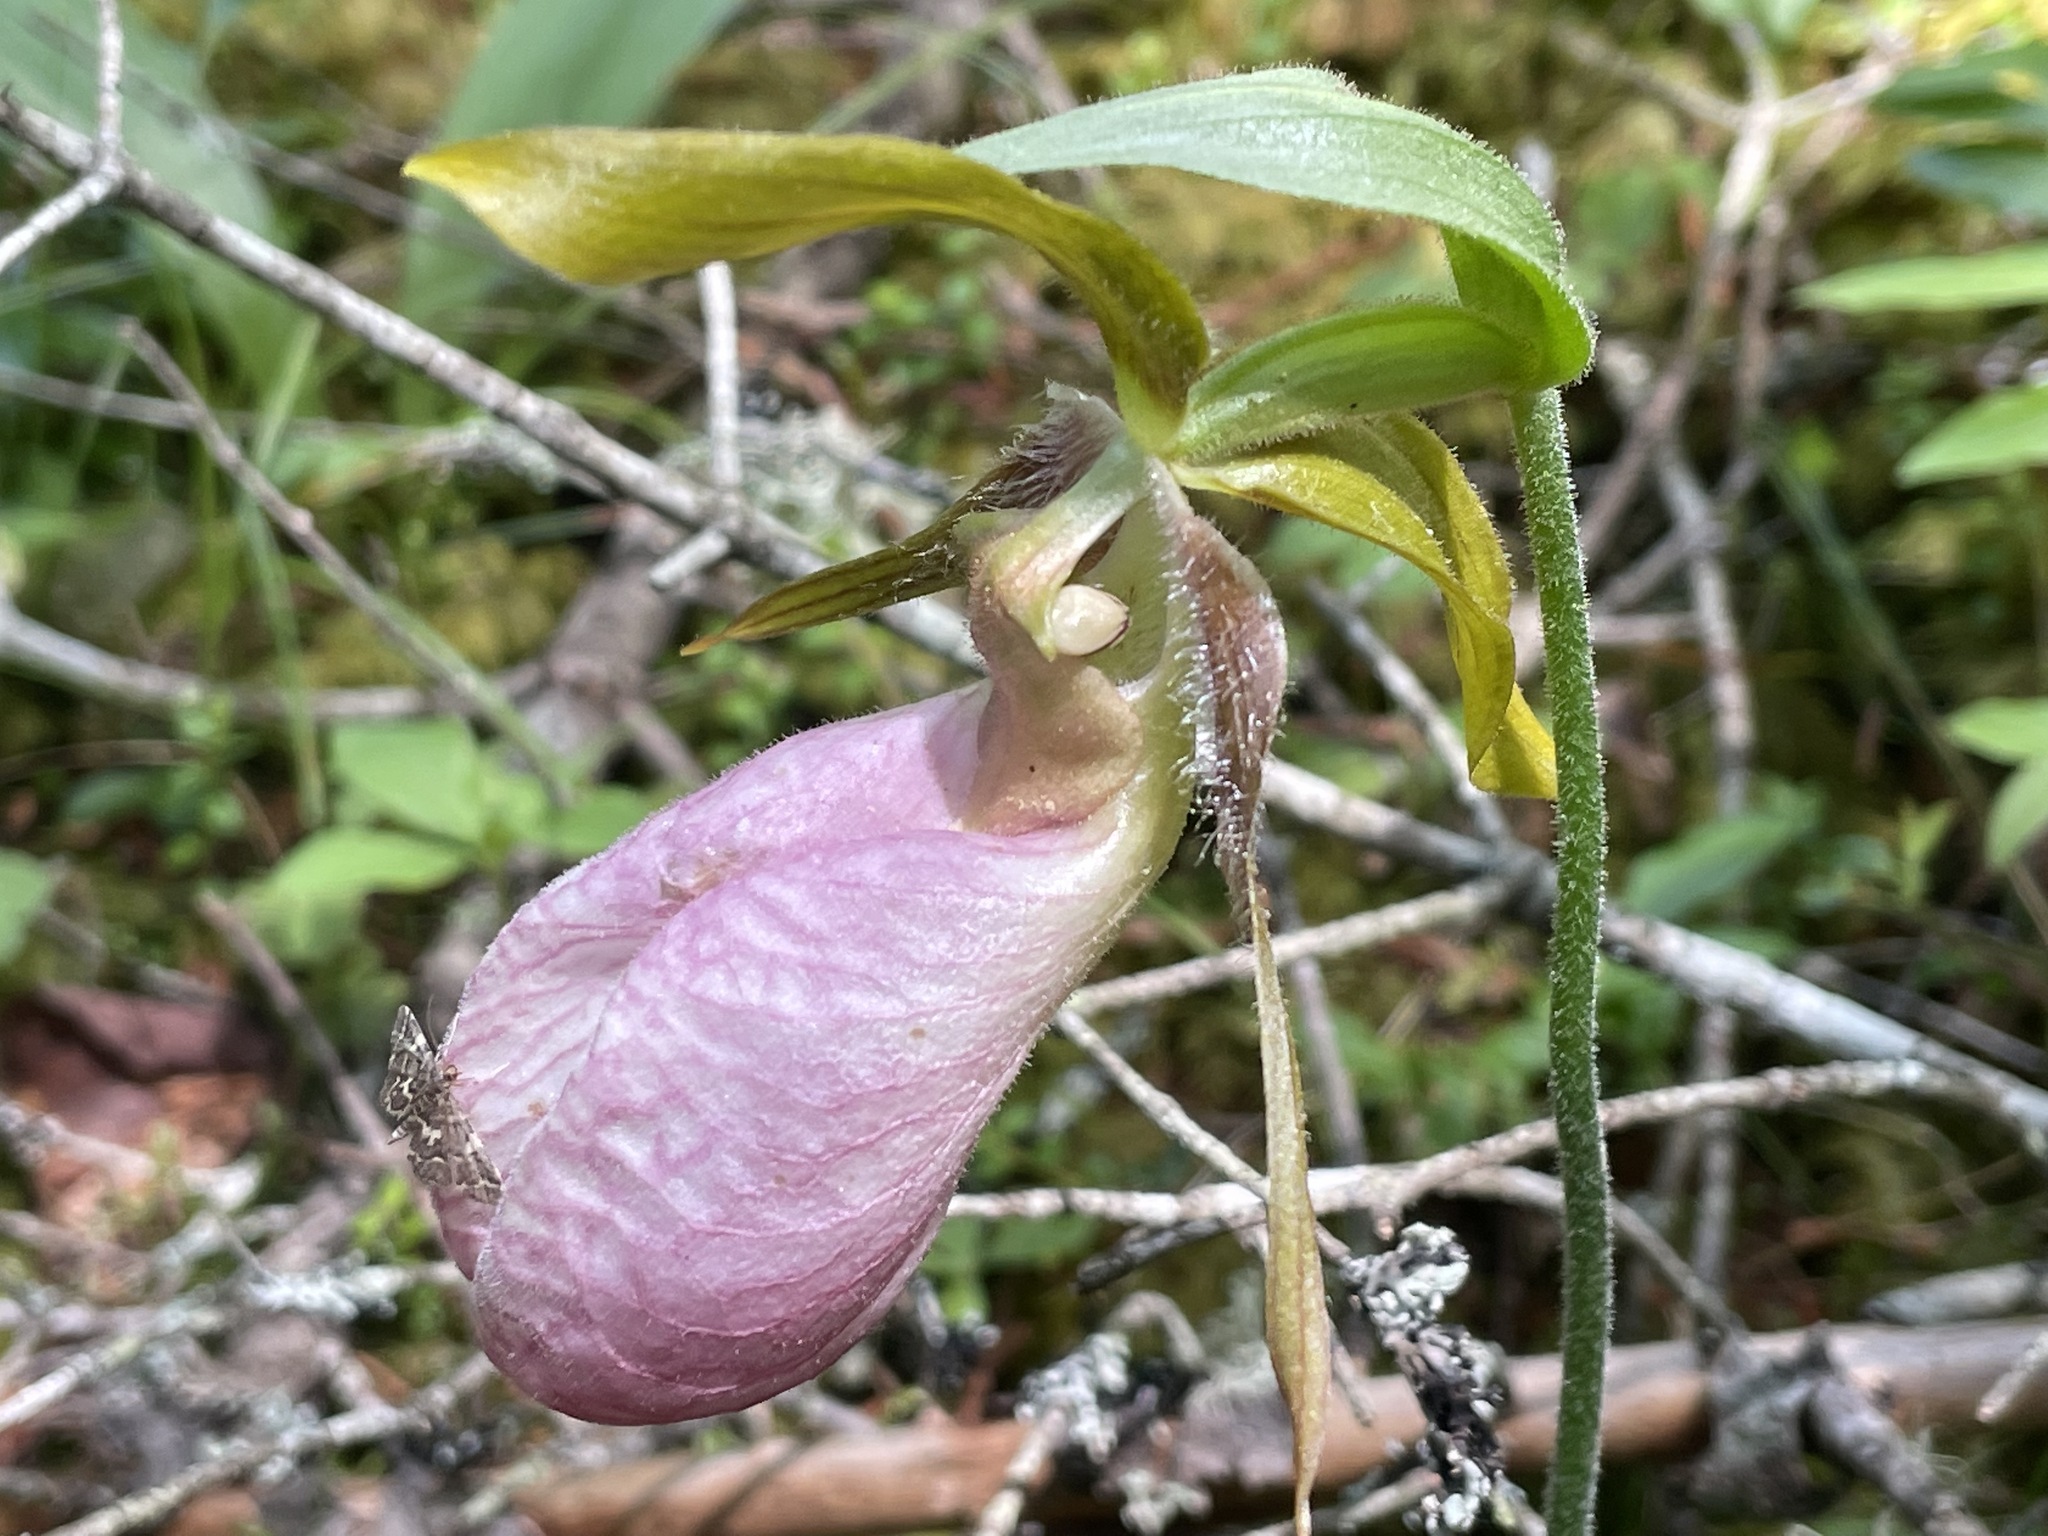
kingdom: Plantae
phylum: Tracheophyta
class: Liliopsida
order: Asparagales
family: Orchidaceae
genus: Cypripedium
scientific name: Cypripedium acaule
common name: Pink lady's-slipper
